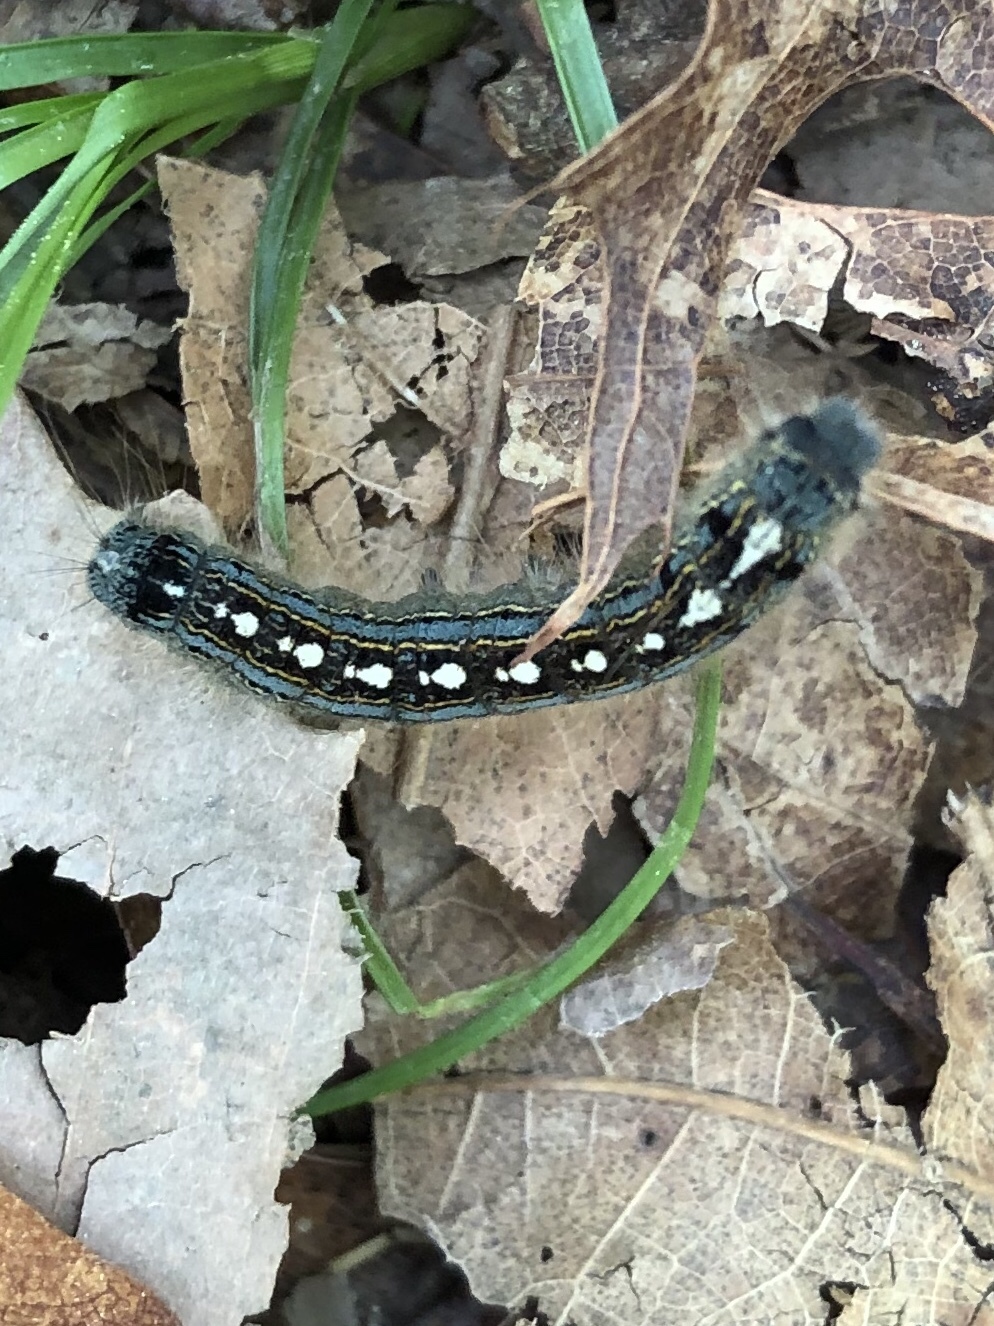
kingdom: Animalia
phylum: Arthropoda
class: Insecta
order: Lepidoptera
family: Lasiocampidae
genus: Malacosoma
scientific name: Malacosoma disstria
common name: Forest tent caterpillar
